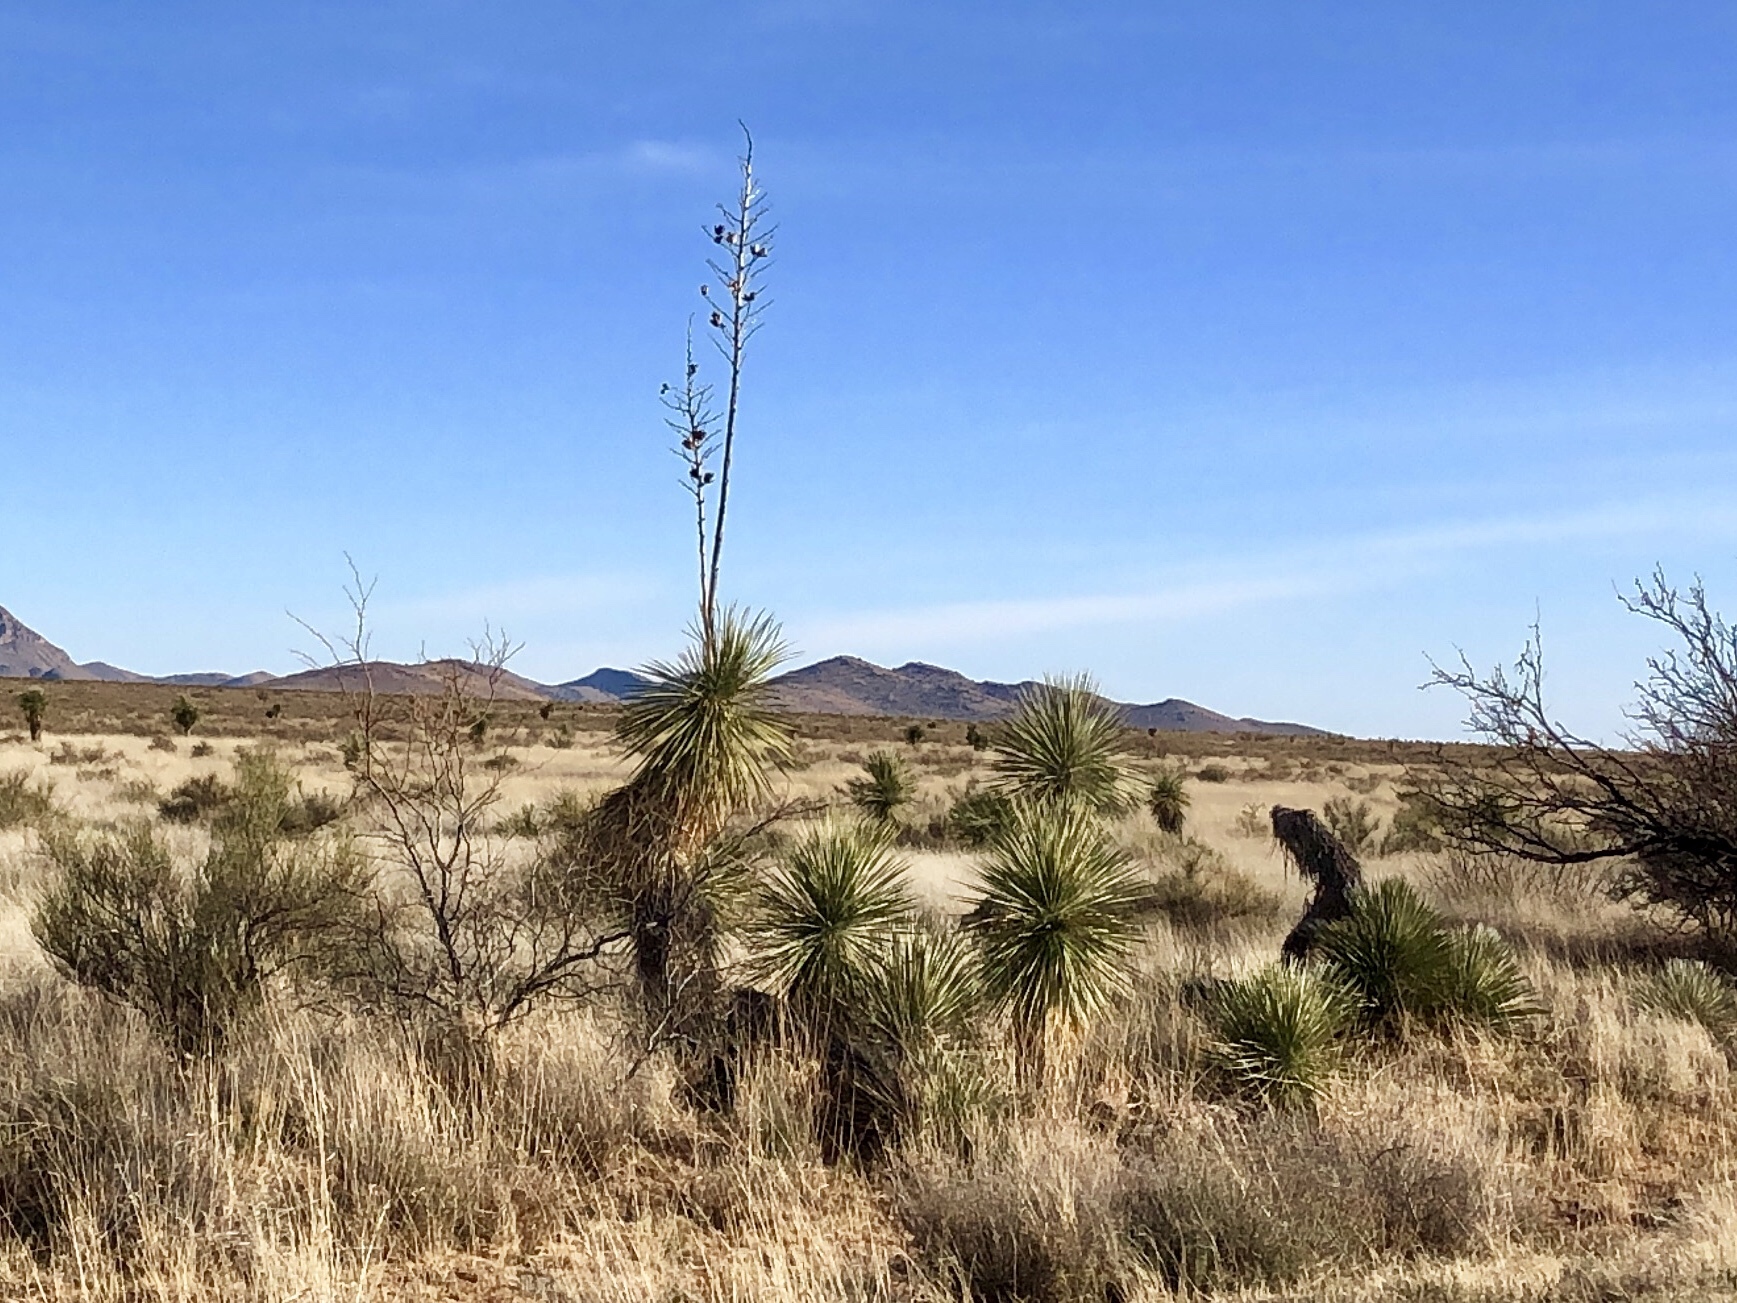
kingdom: Plantae
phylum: Tracheophyta
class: Liliopsida
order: Asparagales
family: Asparagaceae
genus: Yucca
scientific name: Yucca elata
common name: Palmella
